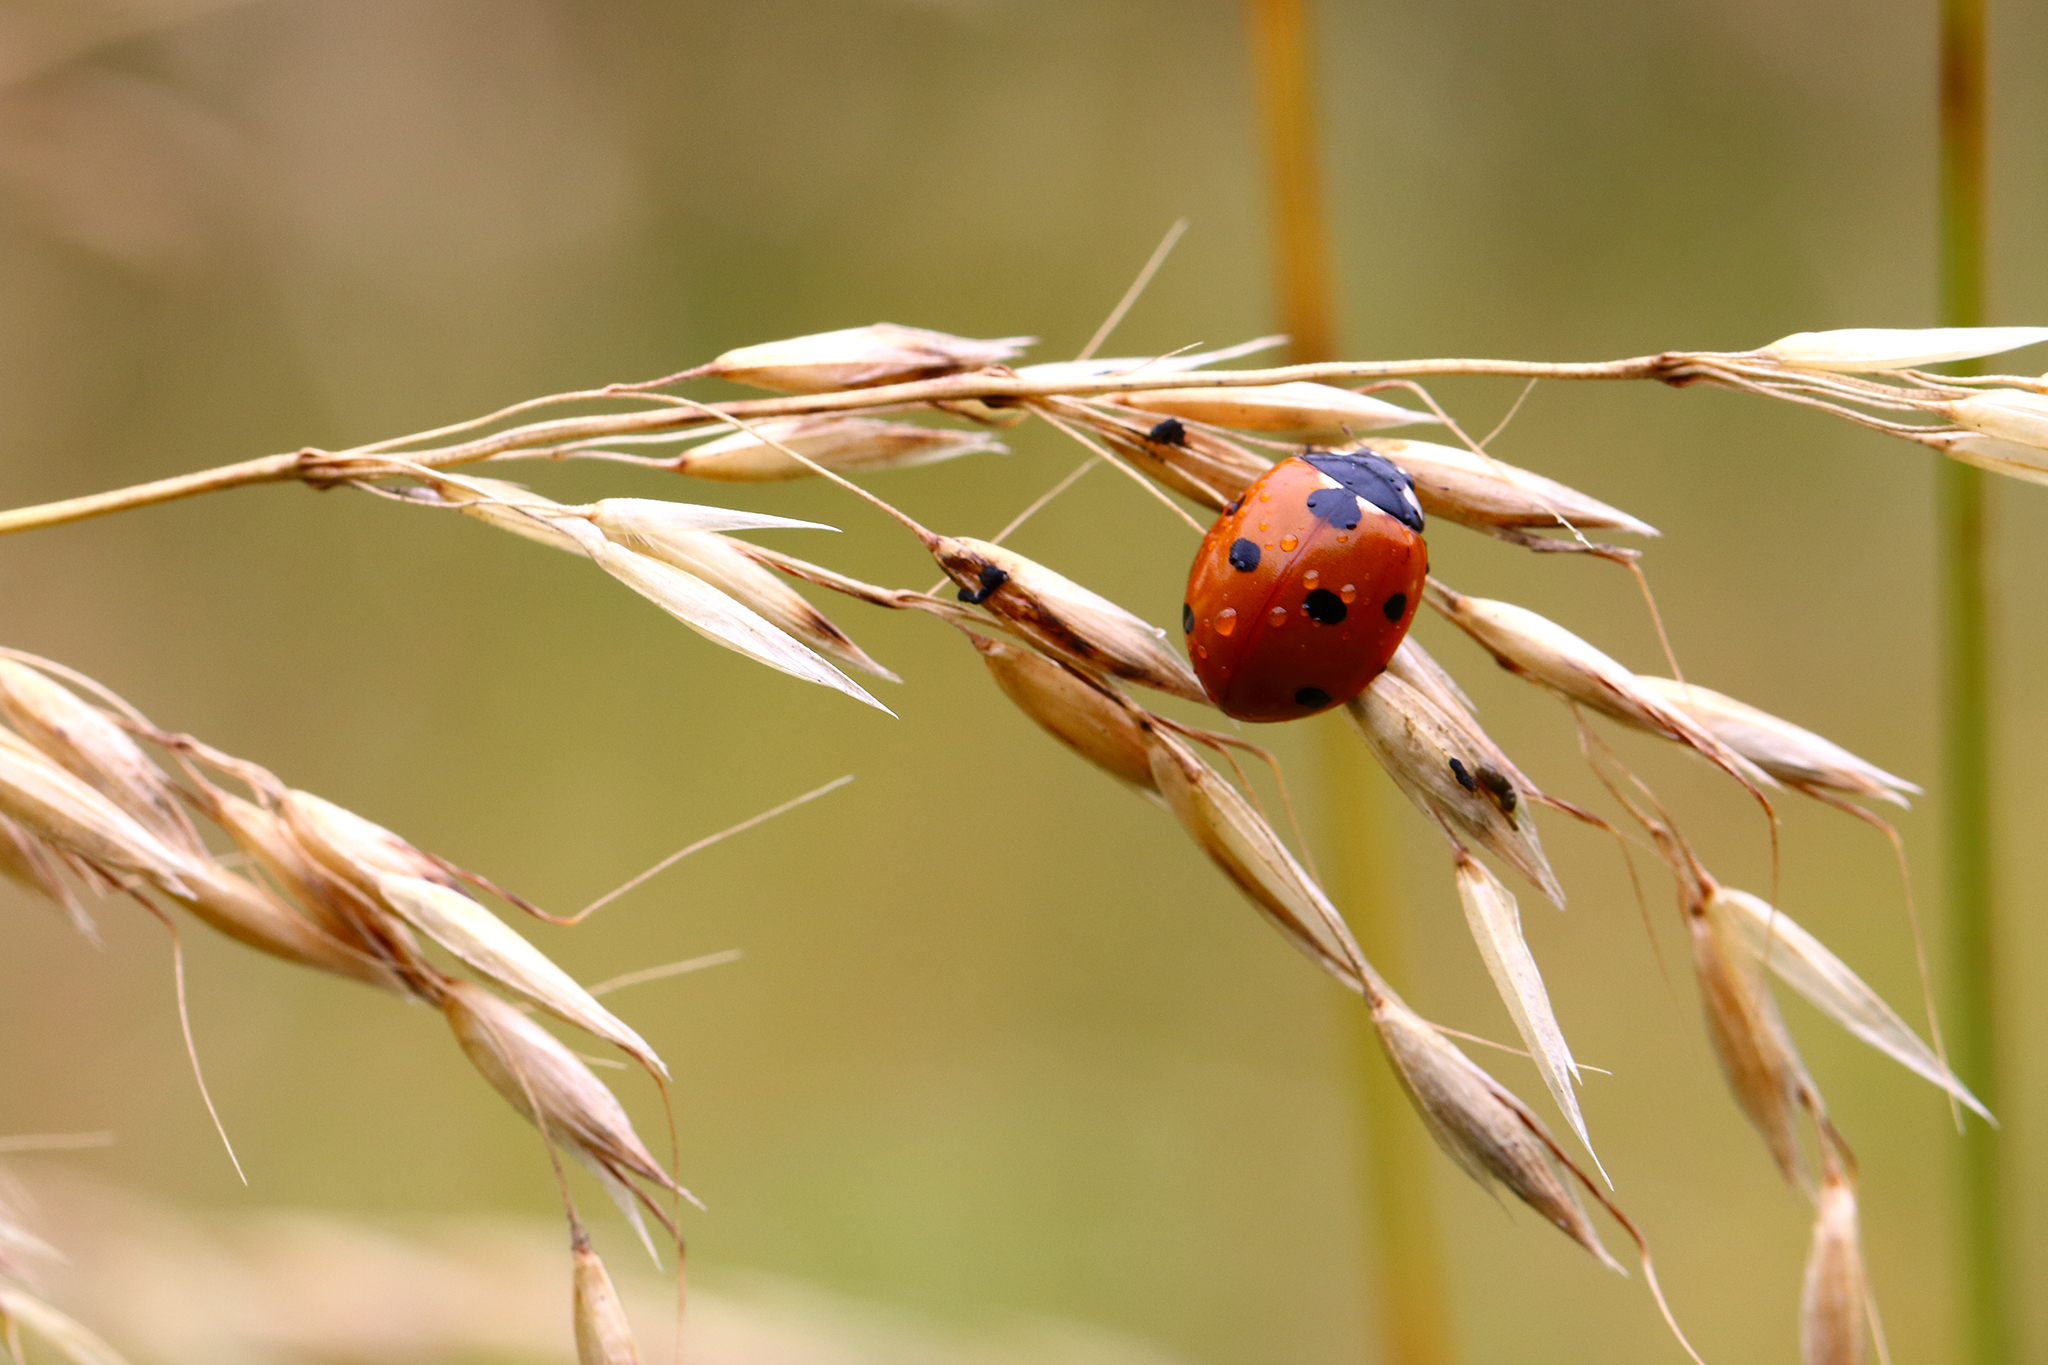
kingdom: Animalia
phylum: Arthropoda
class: Insecta
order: Coleoptera
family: Coccinellidae
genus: Coccinella
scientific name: Coccinella septempunctata
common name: Sevenspotted lady beetle
